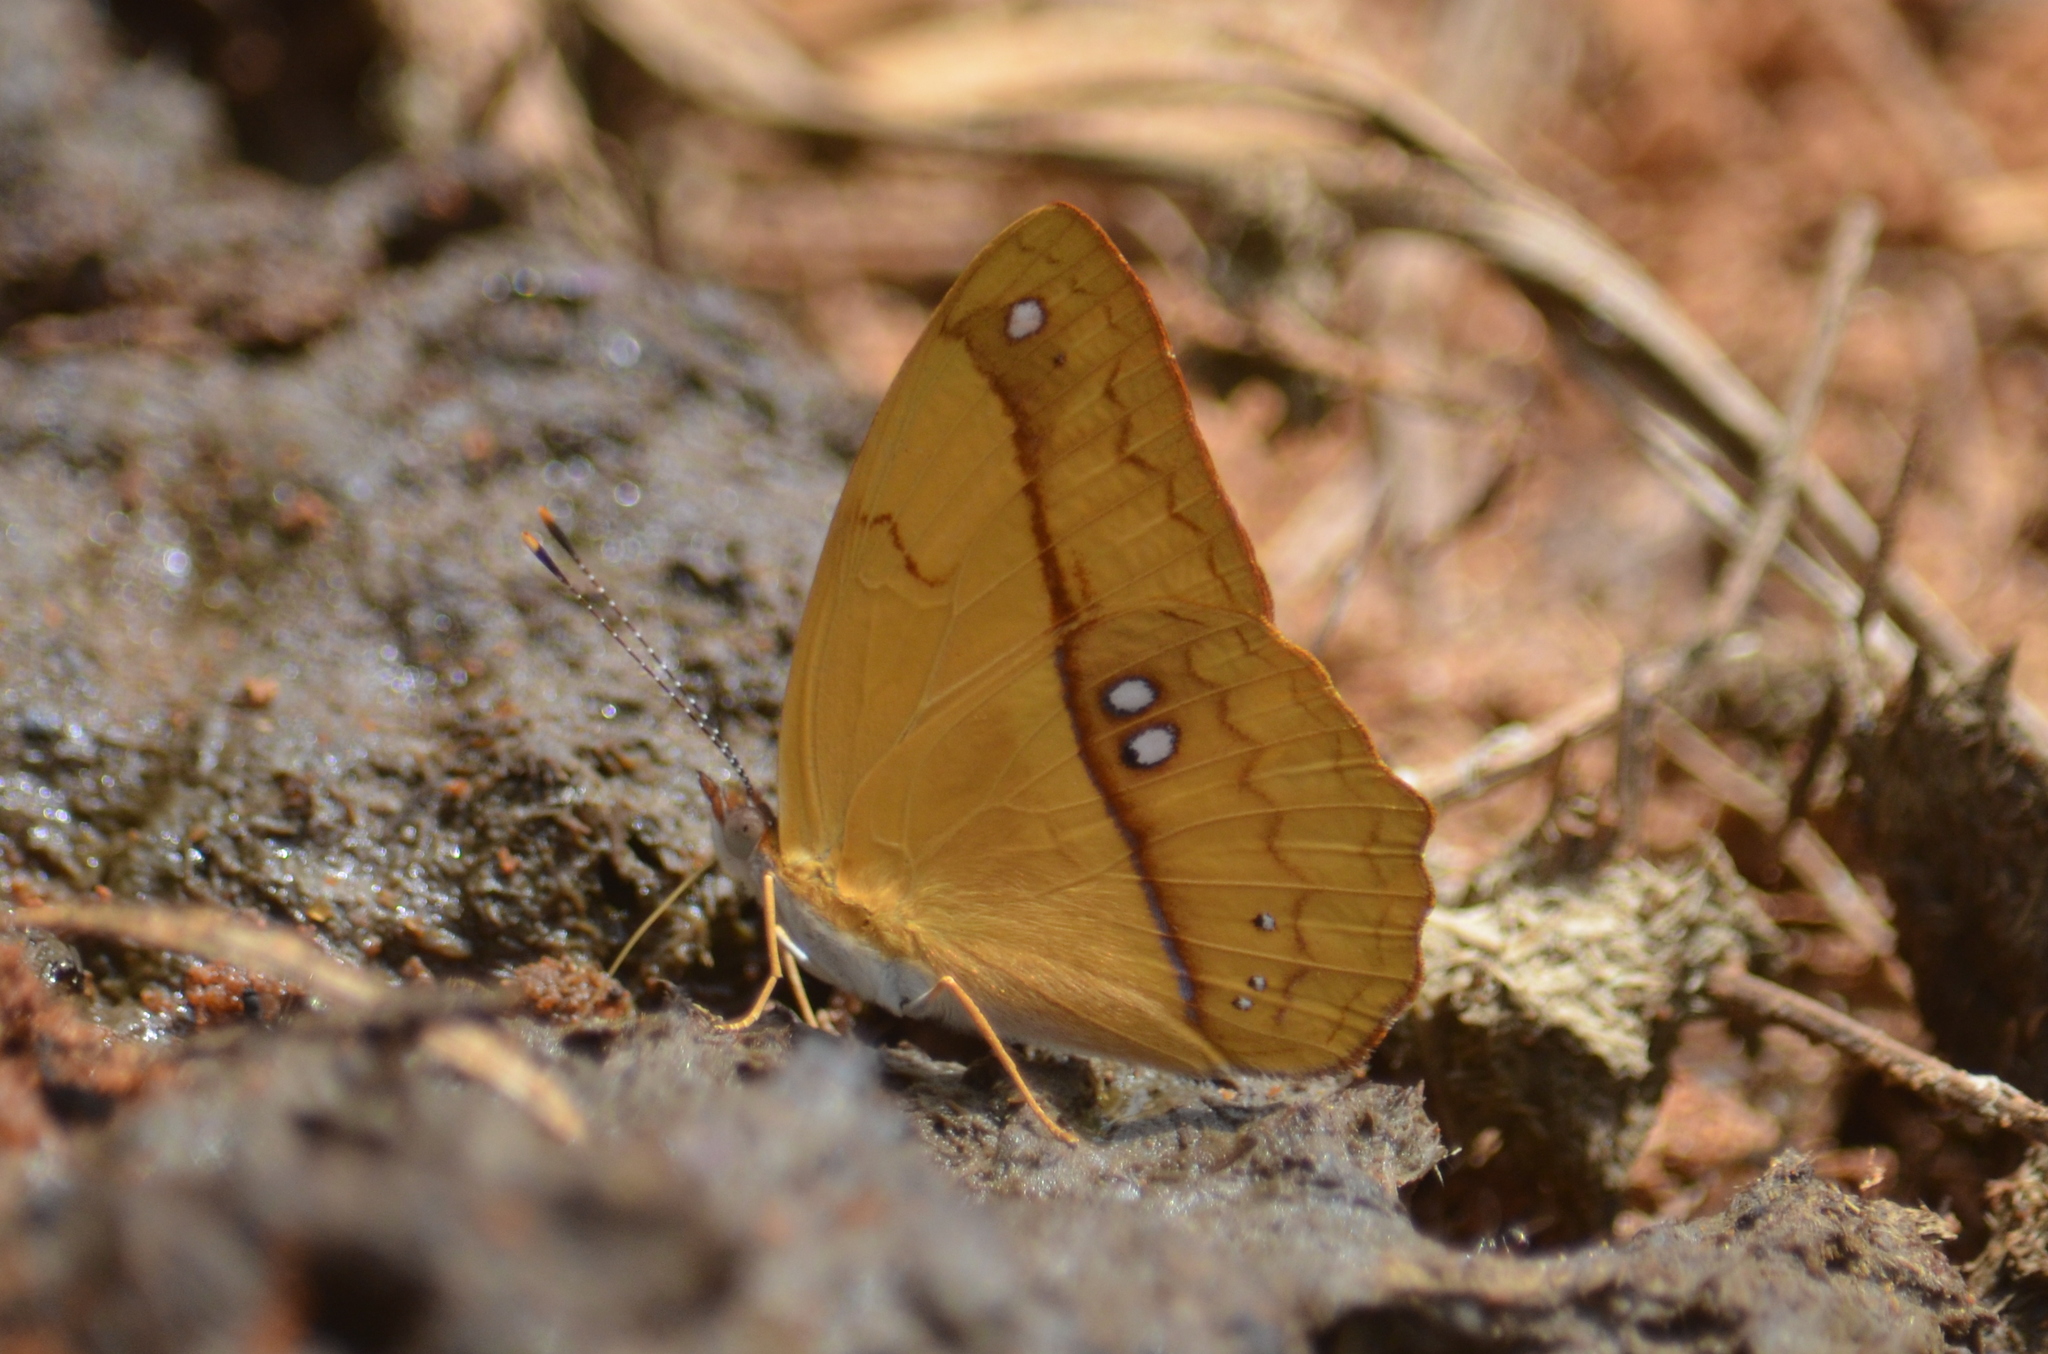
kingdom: Animalia
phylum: Arthropoda
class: Insecta
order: Lepidoptera
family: Nymphalidae
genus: Nica
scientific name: Nica flavilla
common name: Mandarin nica
